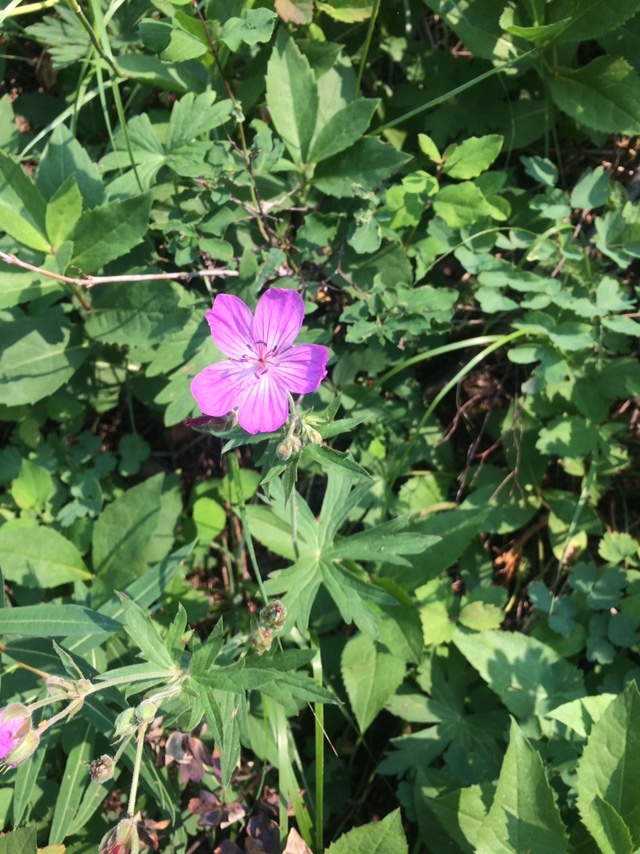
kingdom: Plantae
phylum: Tracheophyta
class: Magnoliopsida
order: Geraniales
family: Geraniaceae
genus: Geranium
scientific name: Geranium viscosissimum
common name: Purple geranium
